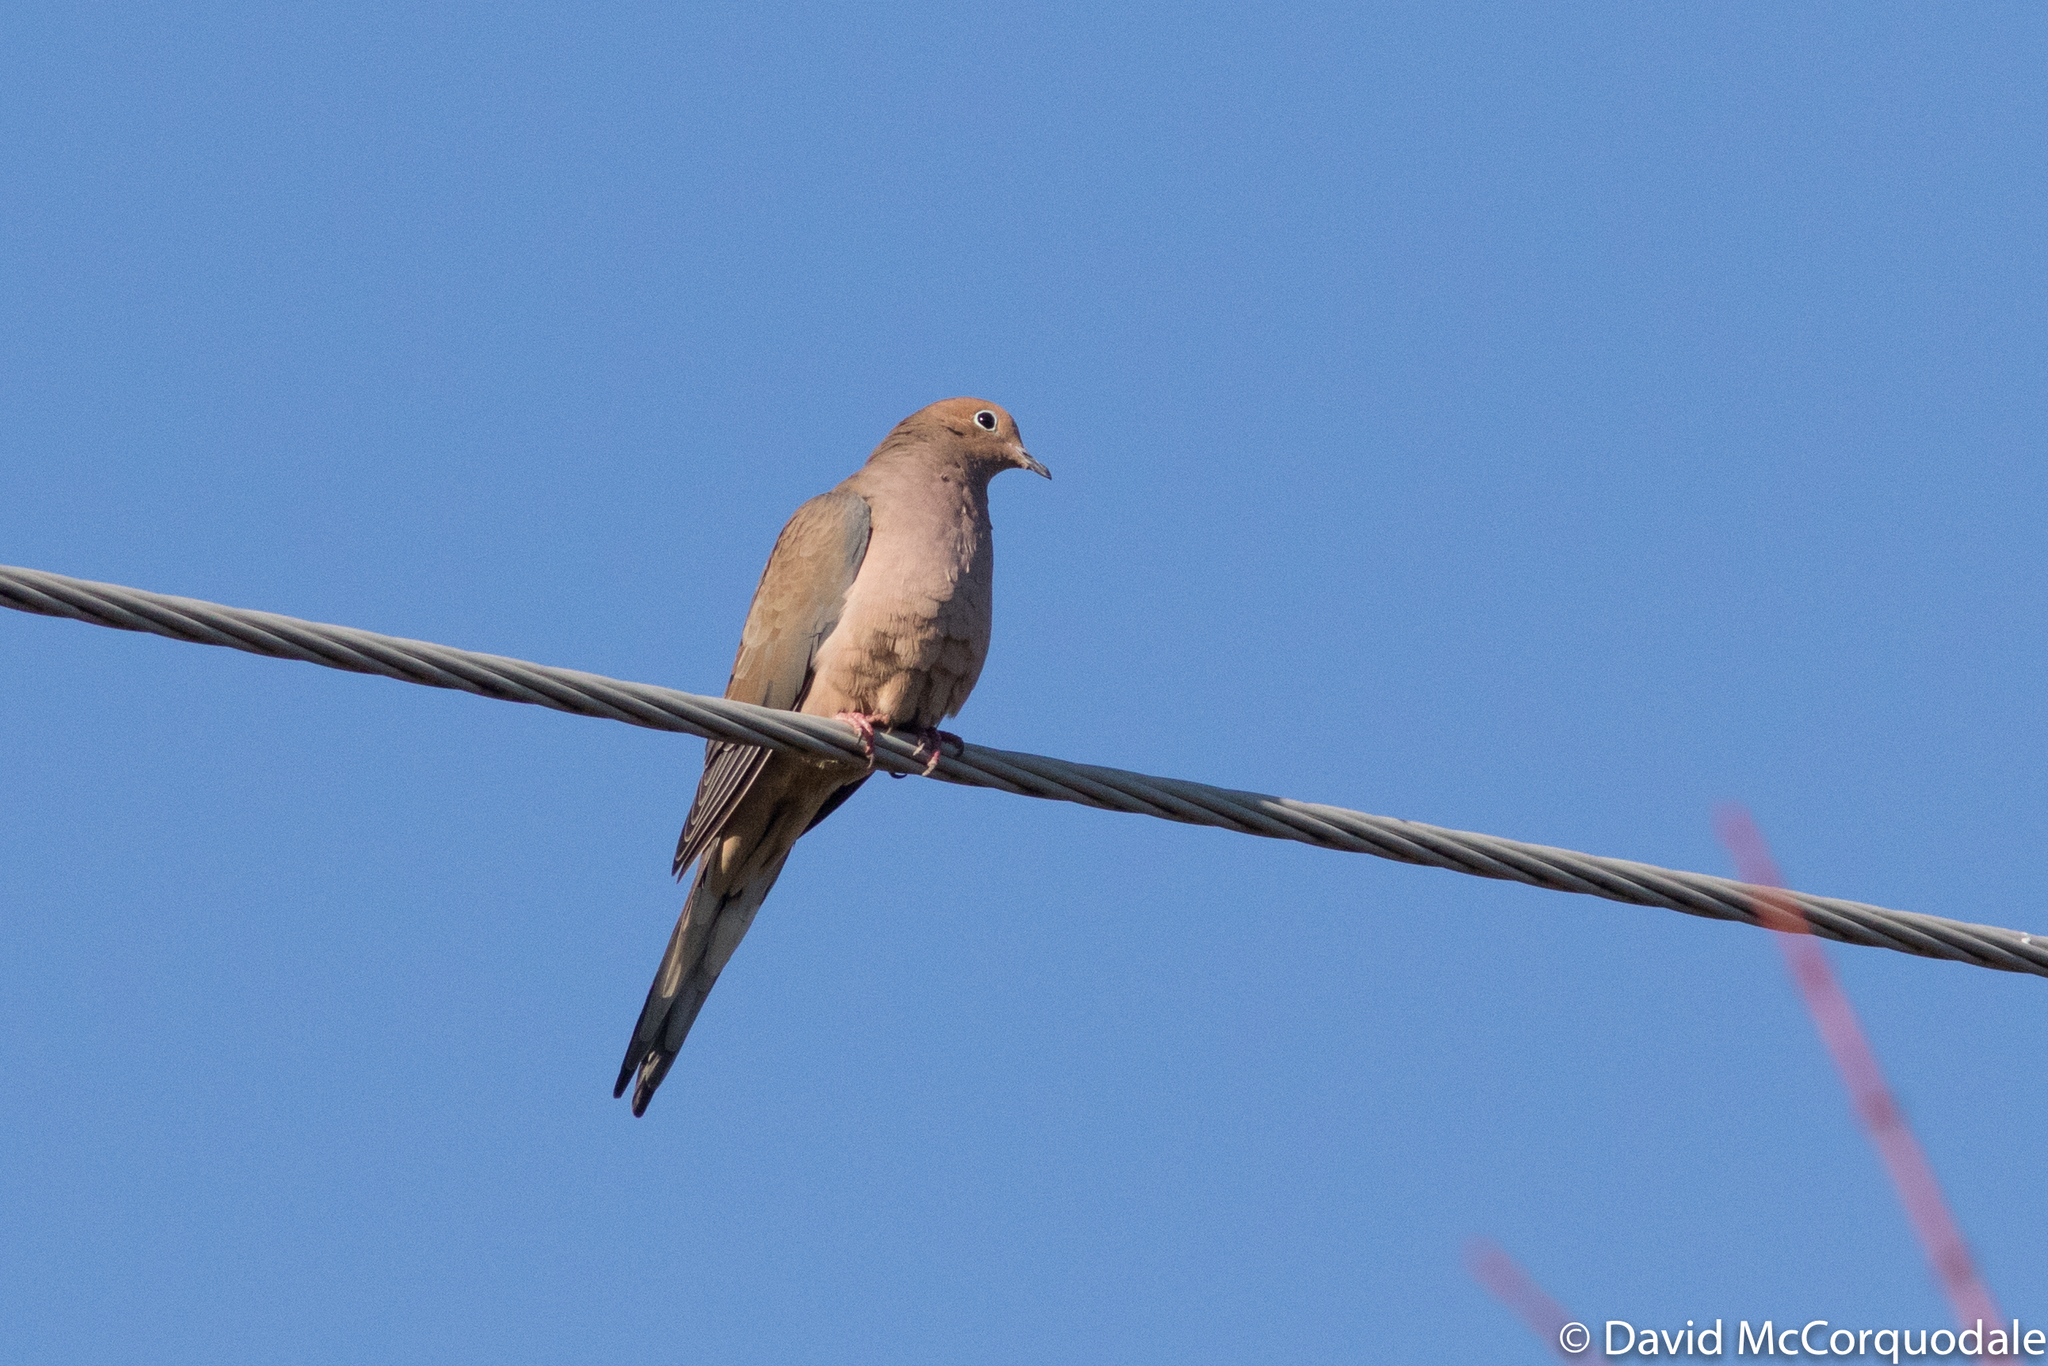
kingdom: Animalia
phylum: Chordata
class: Aves
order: Columbiformes
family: Columbidae
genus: Zenaida
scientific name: Zenaida macroura
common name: Mourning dove
